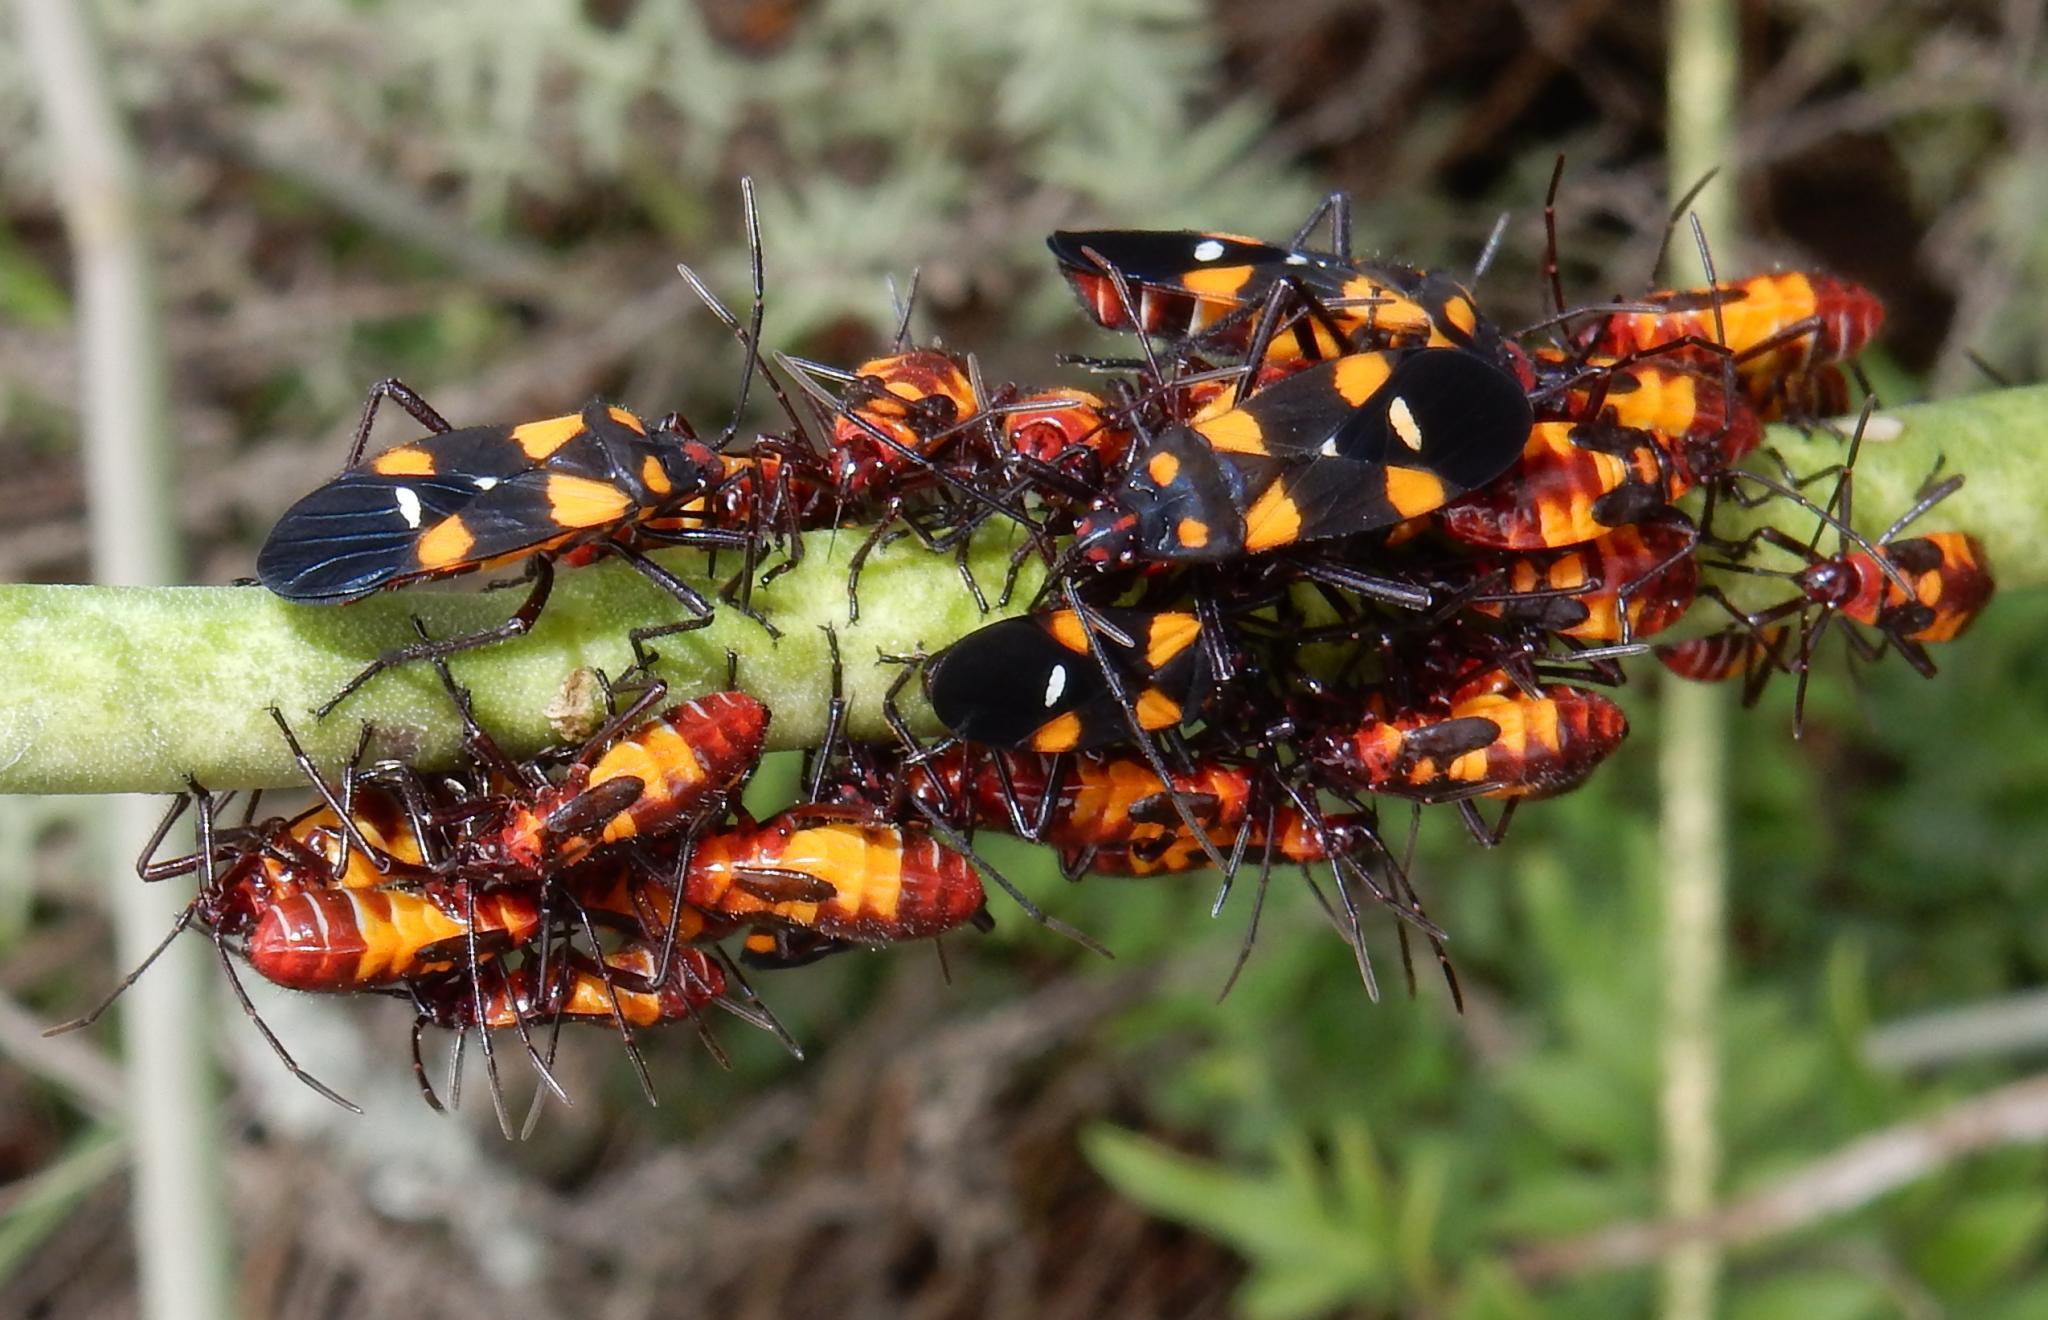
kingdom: Animalia
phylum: Arthropoda
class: Insecta
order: Hemiptera
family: Lygaeidae
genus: Oncopeltus
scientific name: Oncopeltus famelicus
